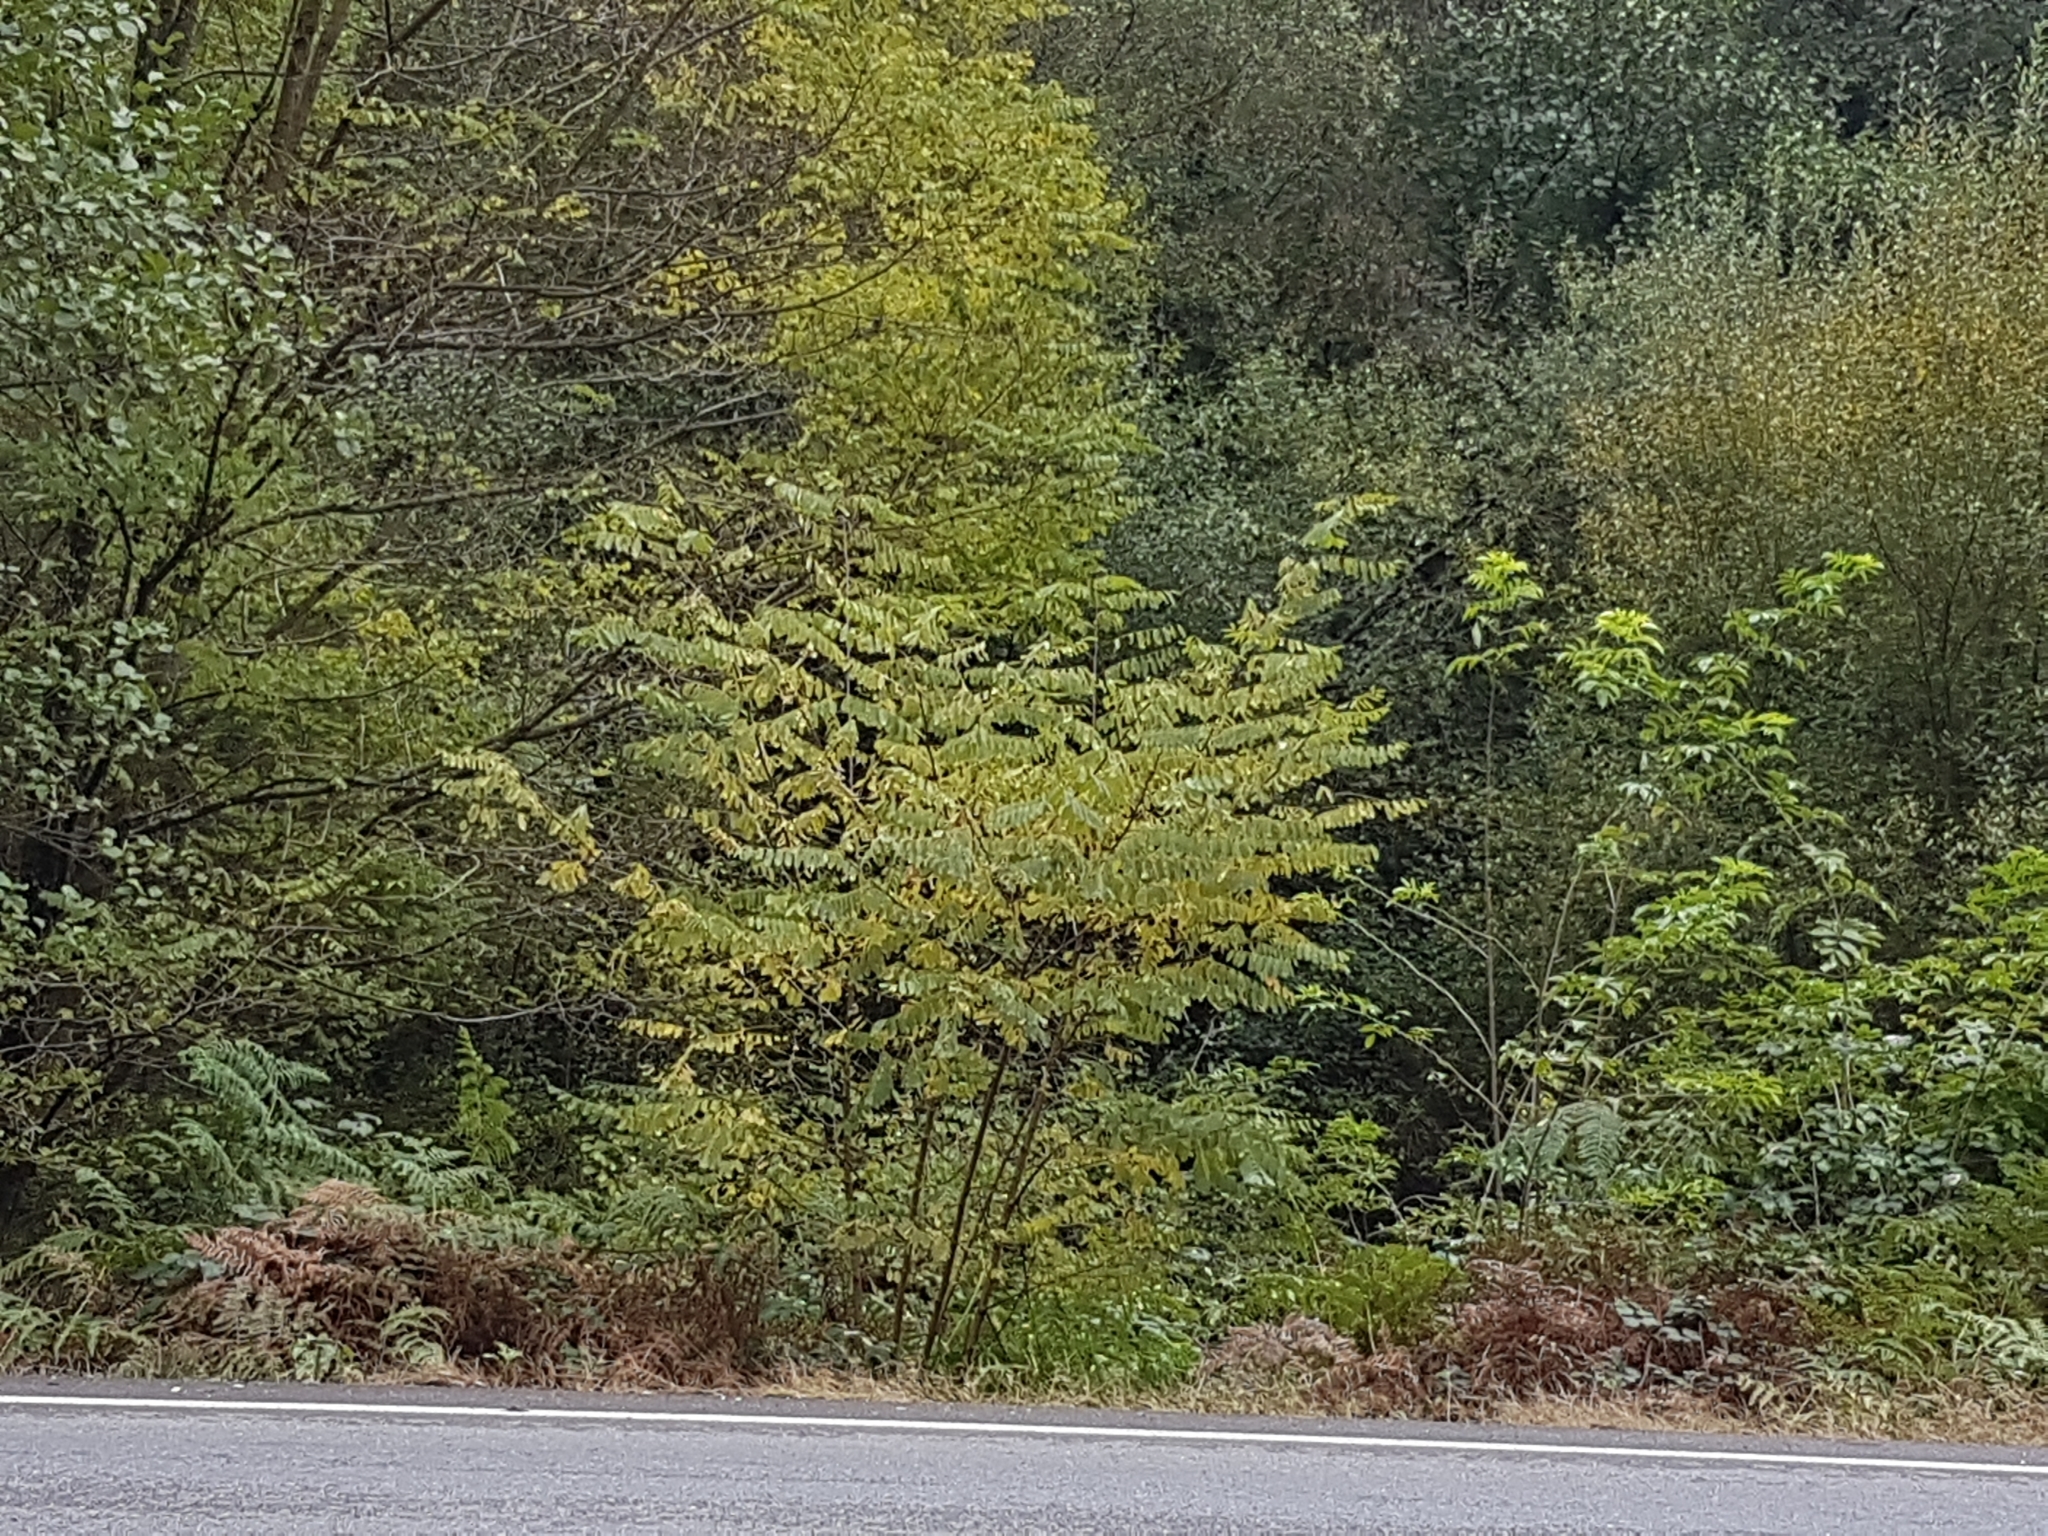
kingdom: Plantae
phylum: Tracheophyta
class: Magnoliopsida
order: Fabales
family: Fabaceae
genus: Robinia
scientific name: Robinia pseudoacacia
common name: Black locust
